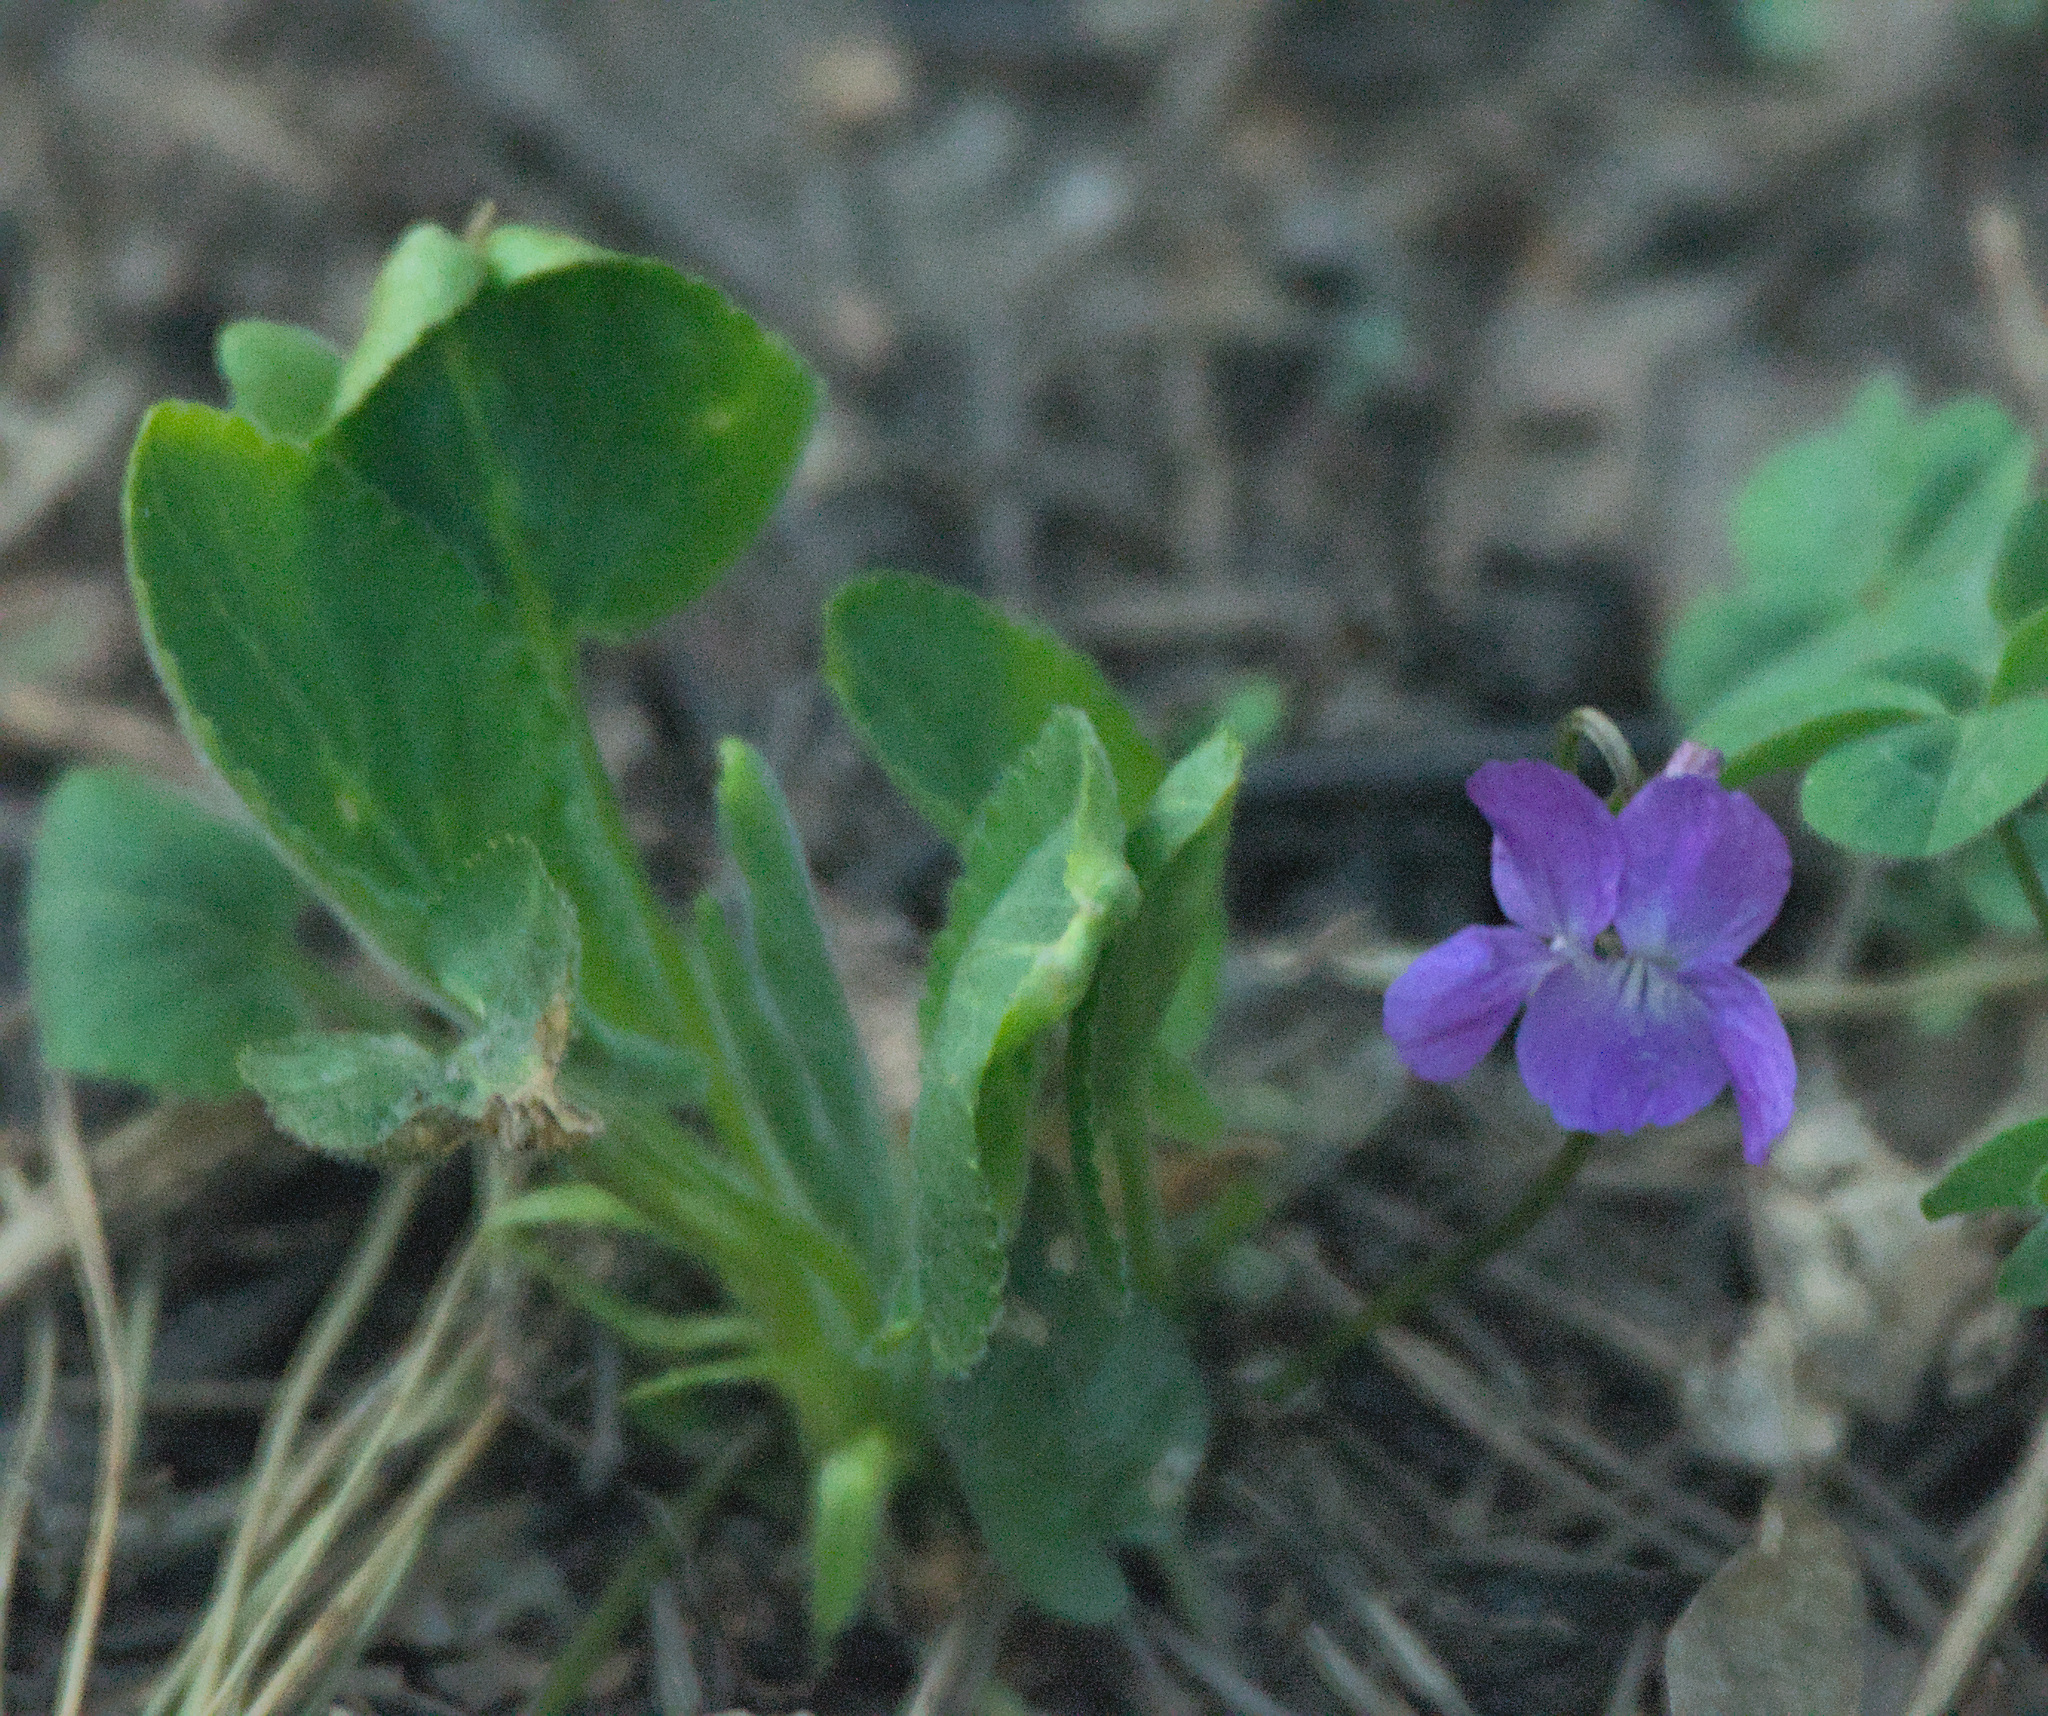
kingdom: Plantae
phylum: Tracheophyta
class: Magnoliopsida
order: Malpighiales
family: Violaceae
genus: Viola
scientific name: Viola hirta
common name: Hairy violet
